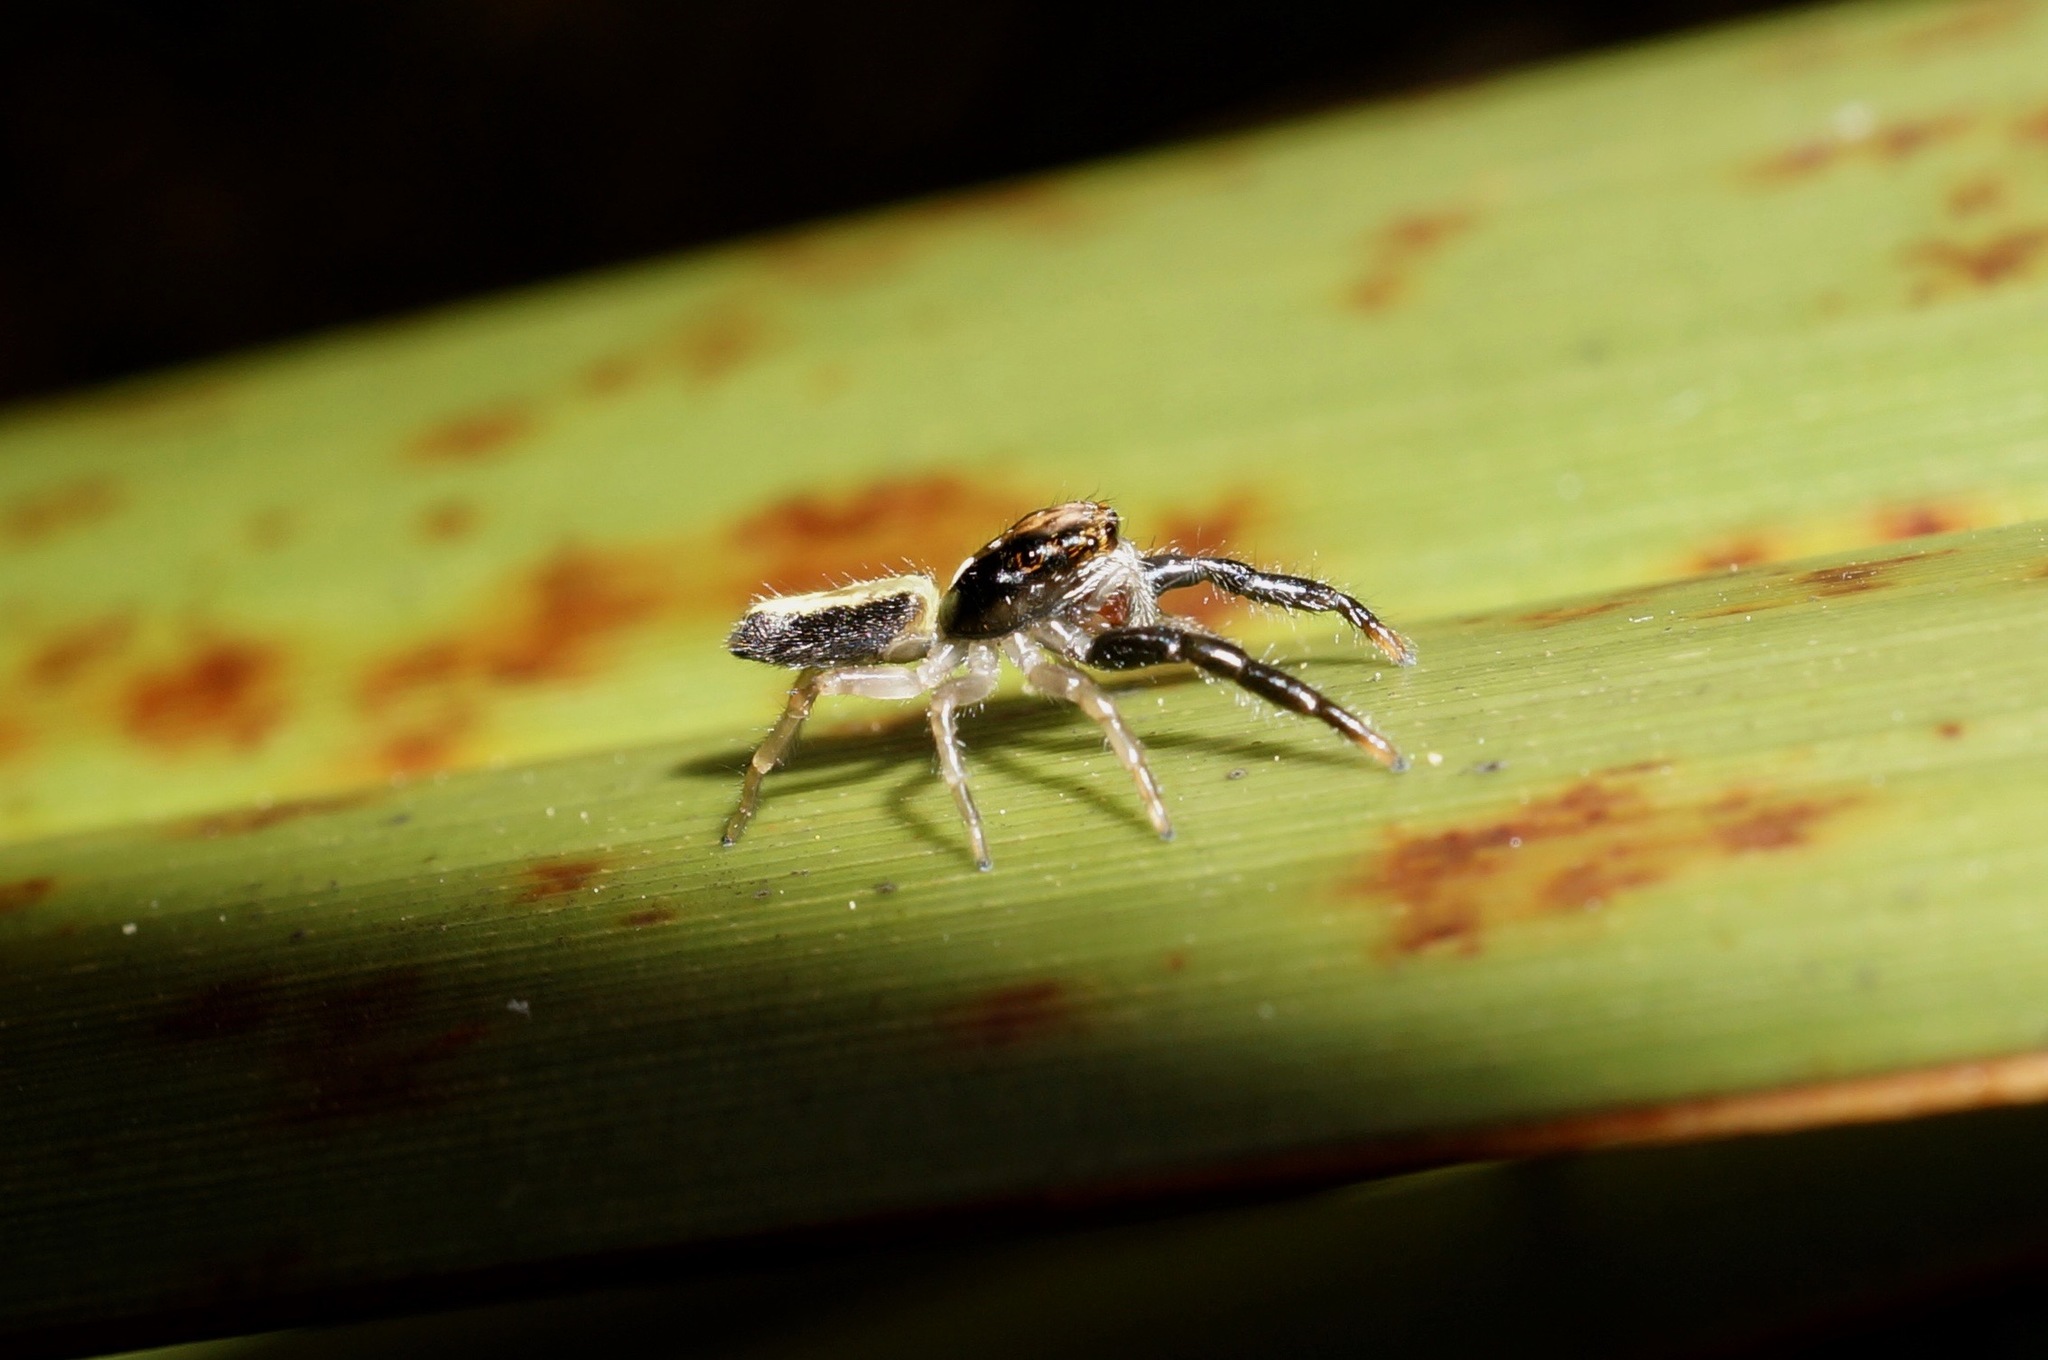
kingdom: Animalia
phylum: Arthropoda
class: Arachnida
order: Araneae
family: Salticidae
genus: Trite
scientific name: Trite planiceps
